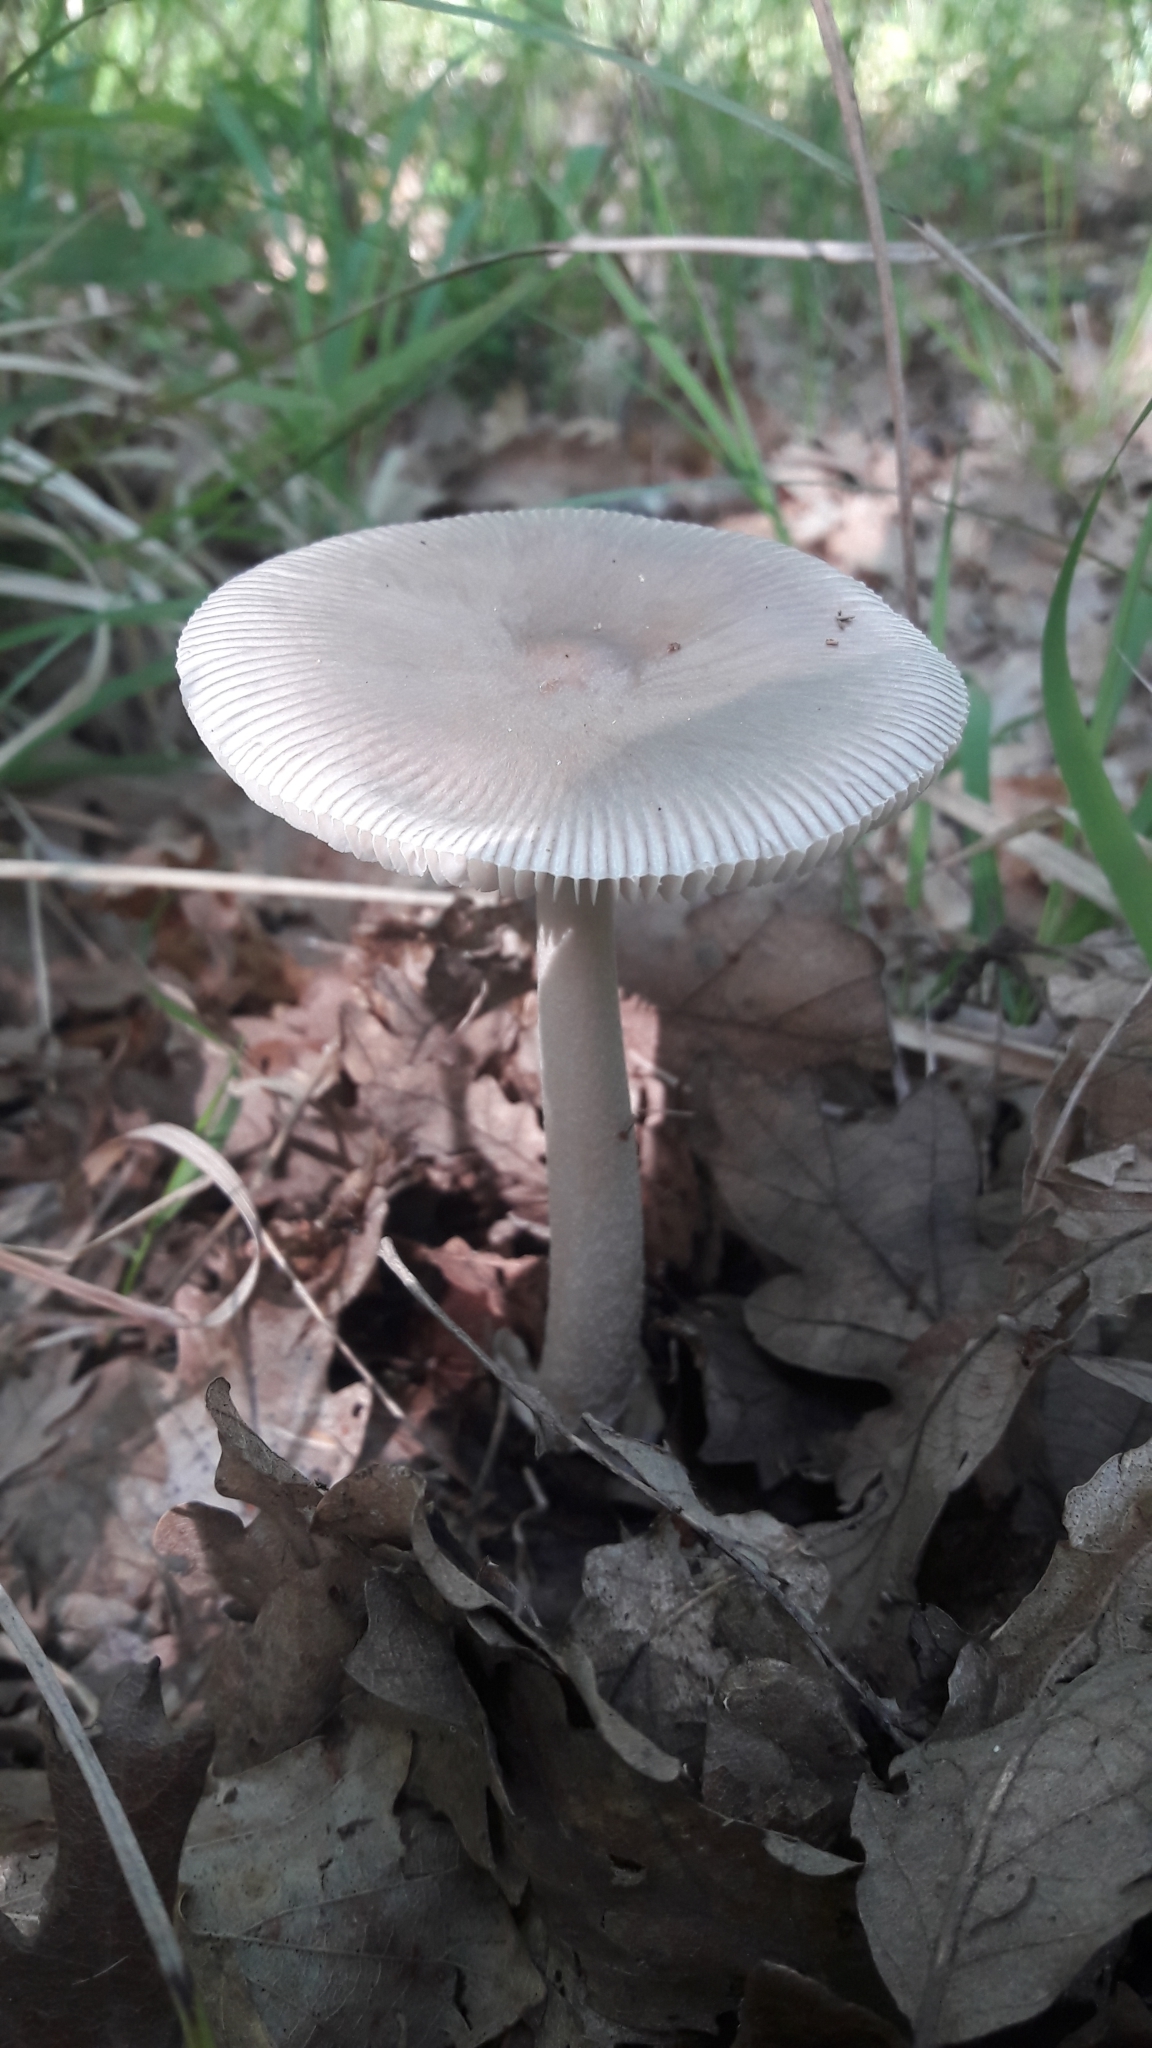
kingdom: Fungi
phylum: Basidiomycota
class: Agaricomycetes
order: Agaricales
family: Amanitaceae
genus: Amanita
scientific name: Amanita vaginata
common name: Grisette
